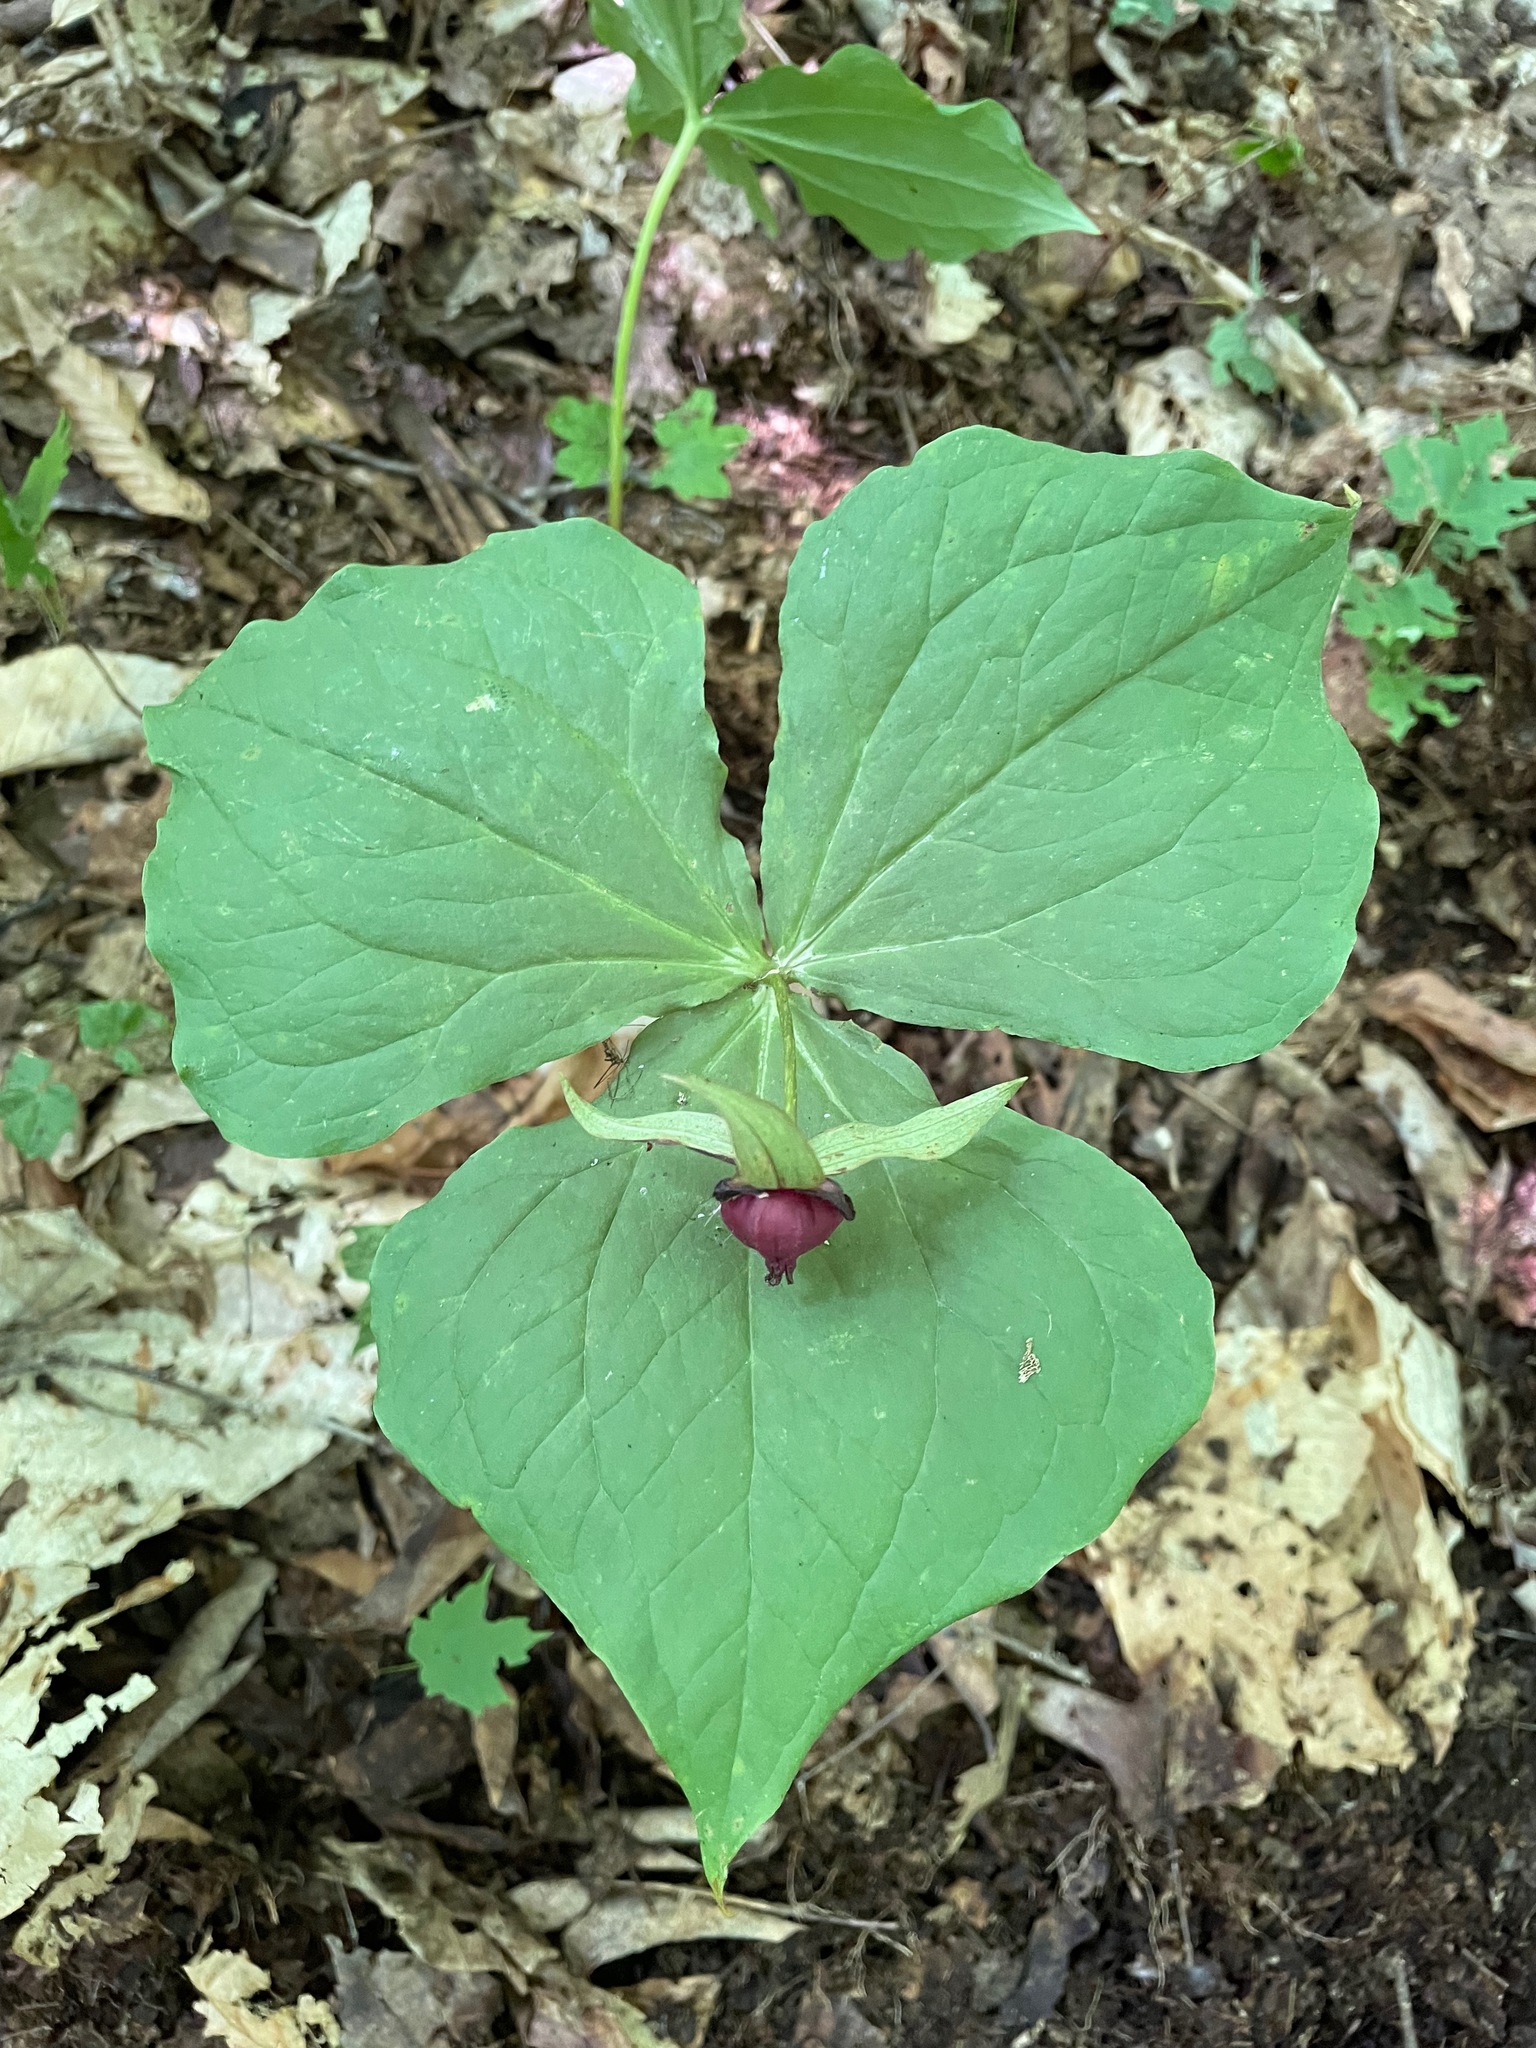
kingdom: Plantae
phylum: Tracheophyta
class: Liliopsida
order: Liliales
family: Melanthiaceae
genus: Trillium
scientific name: Trillium erectum
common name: Purple trillium
